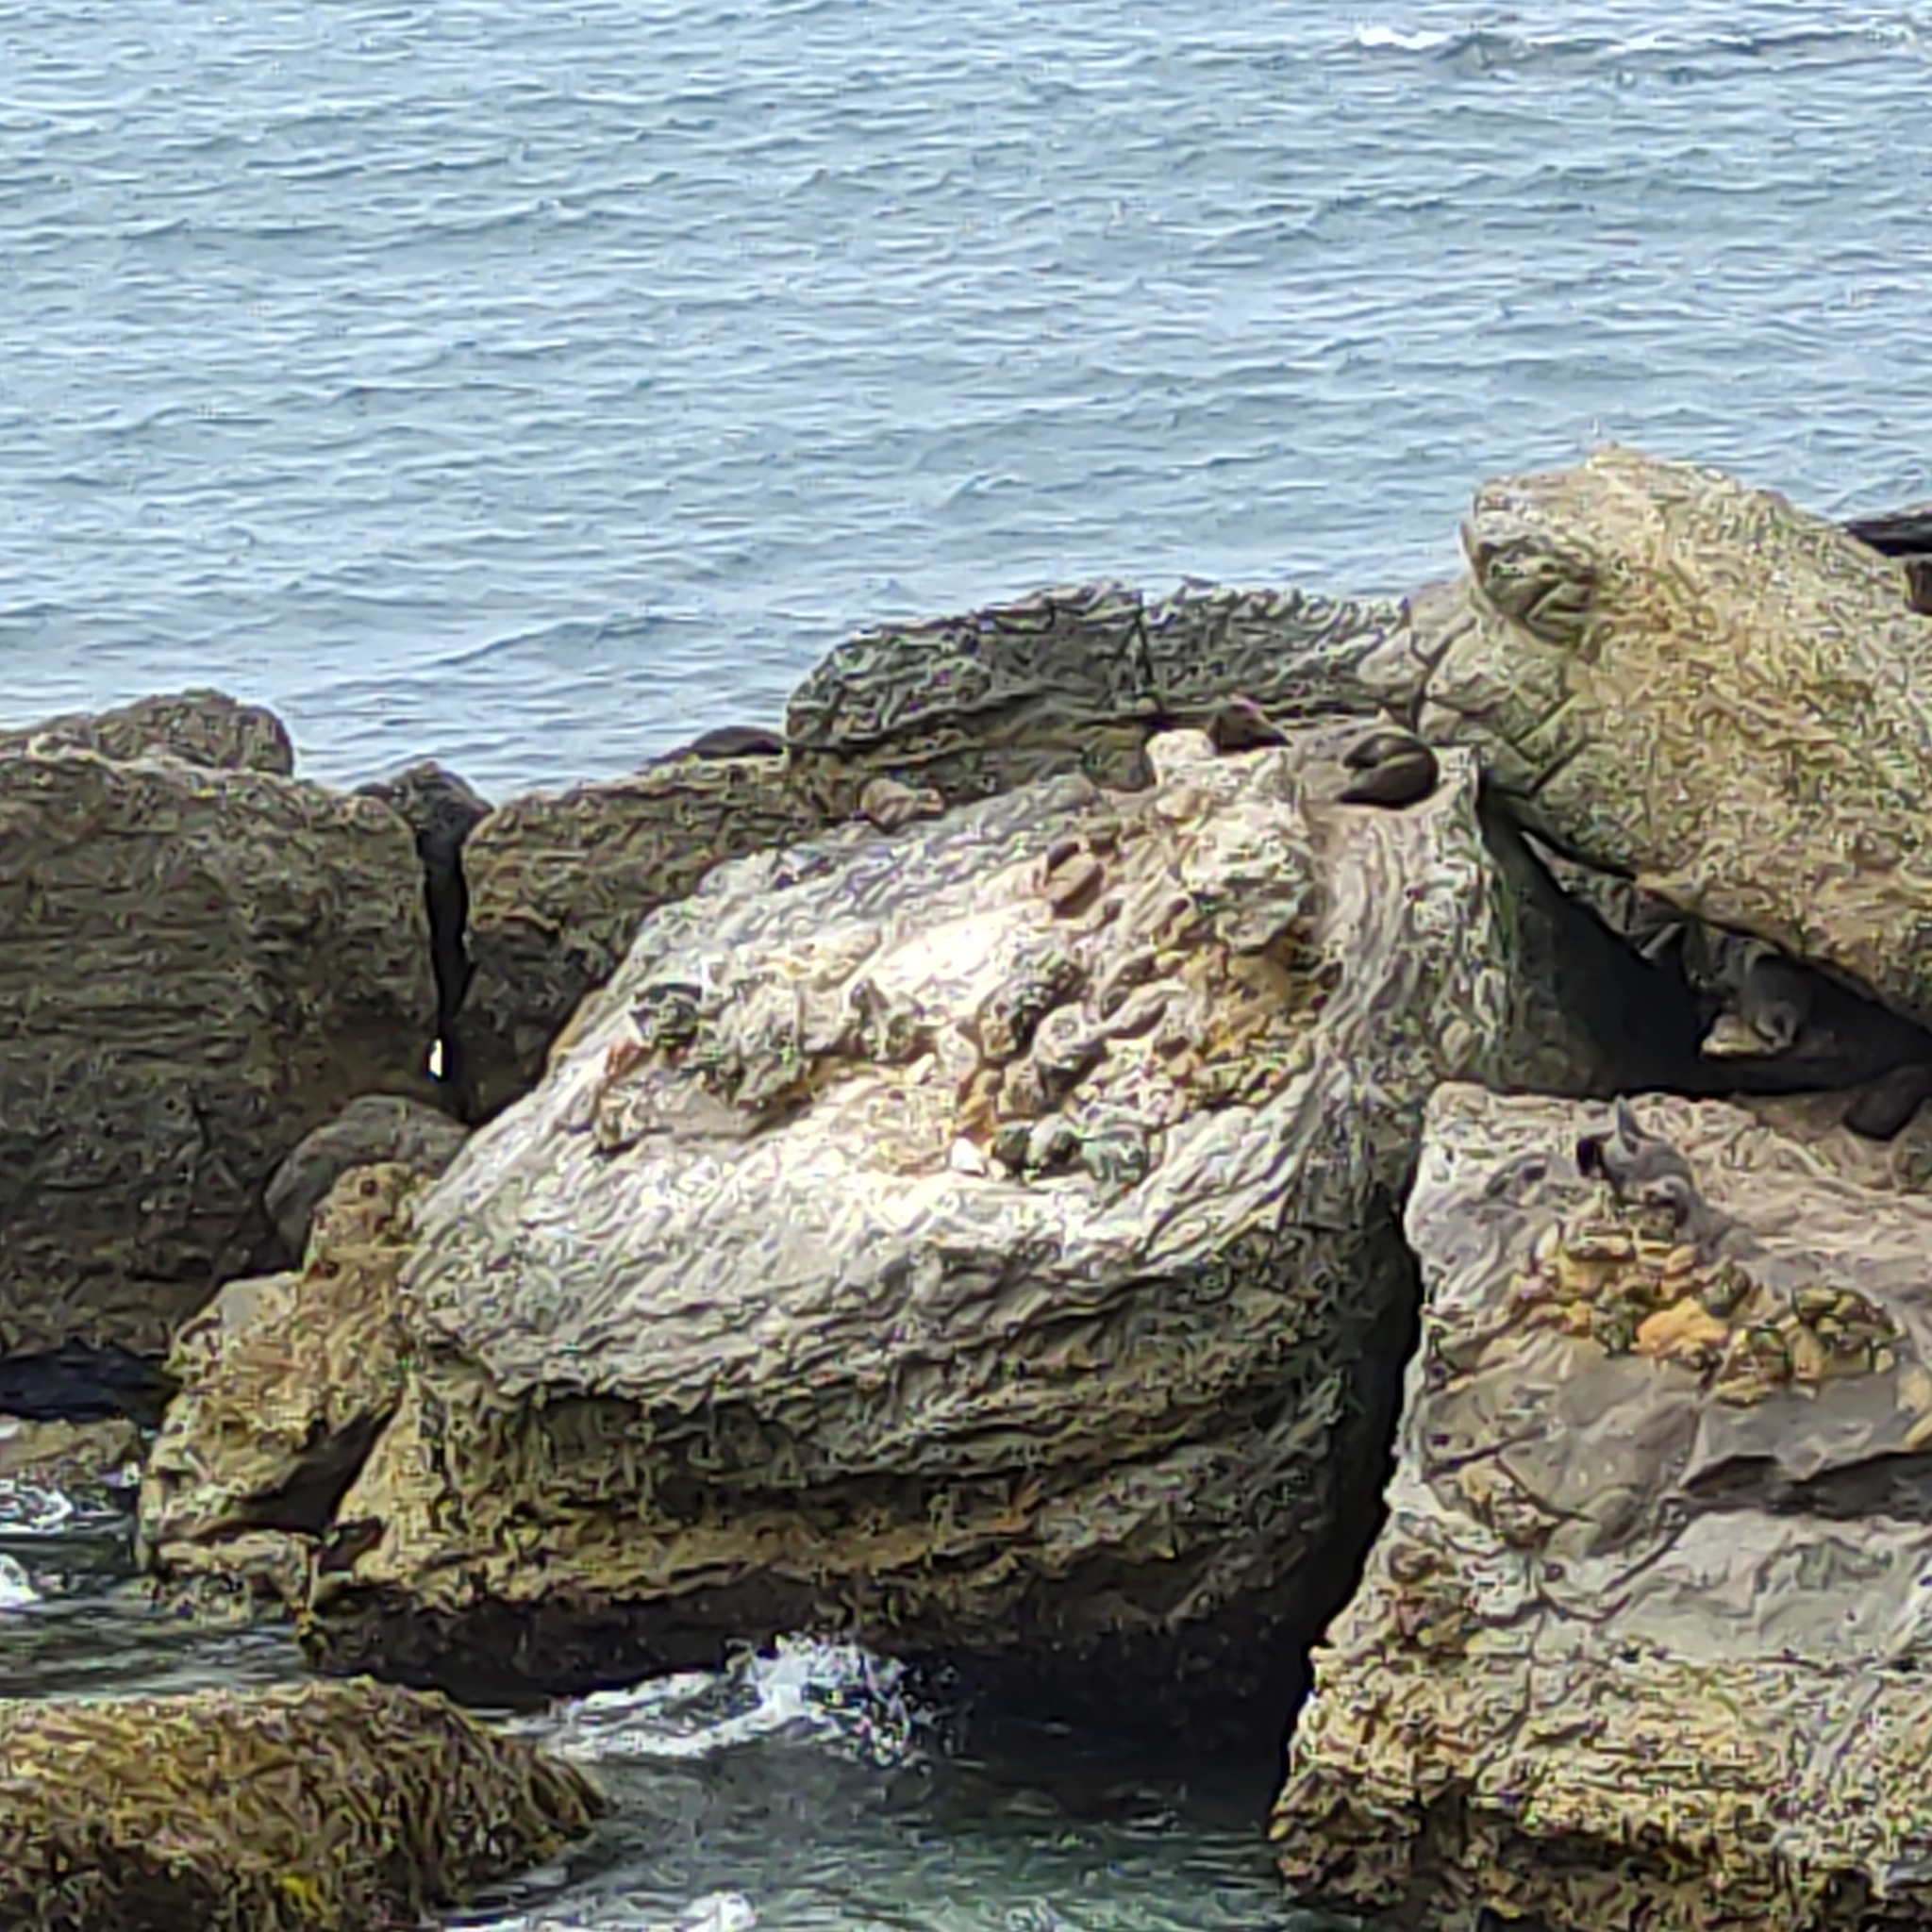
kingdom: Animalia
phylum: Chordata
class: Mammalia
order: Carnivora
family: Otariidae
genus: Arctocephalus
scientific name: Arctocephalus forsteri
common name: New zealand fur seal
